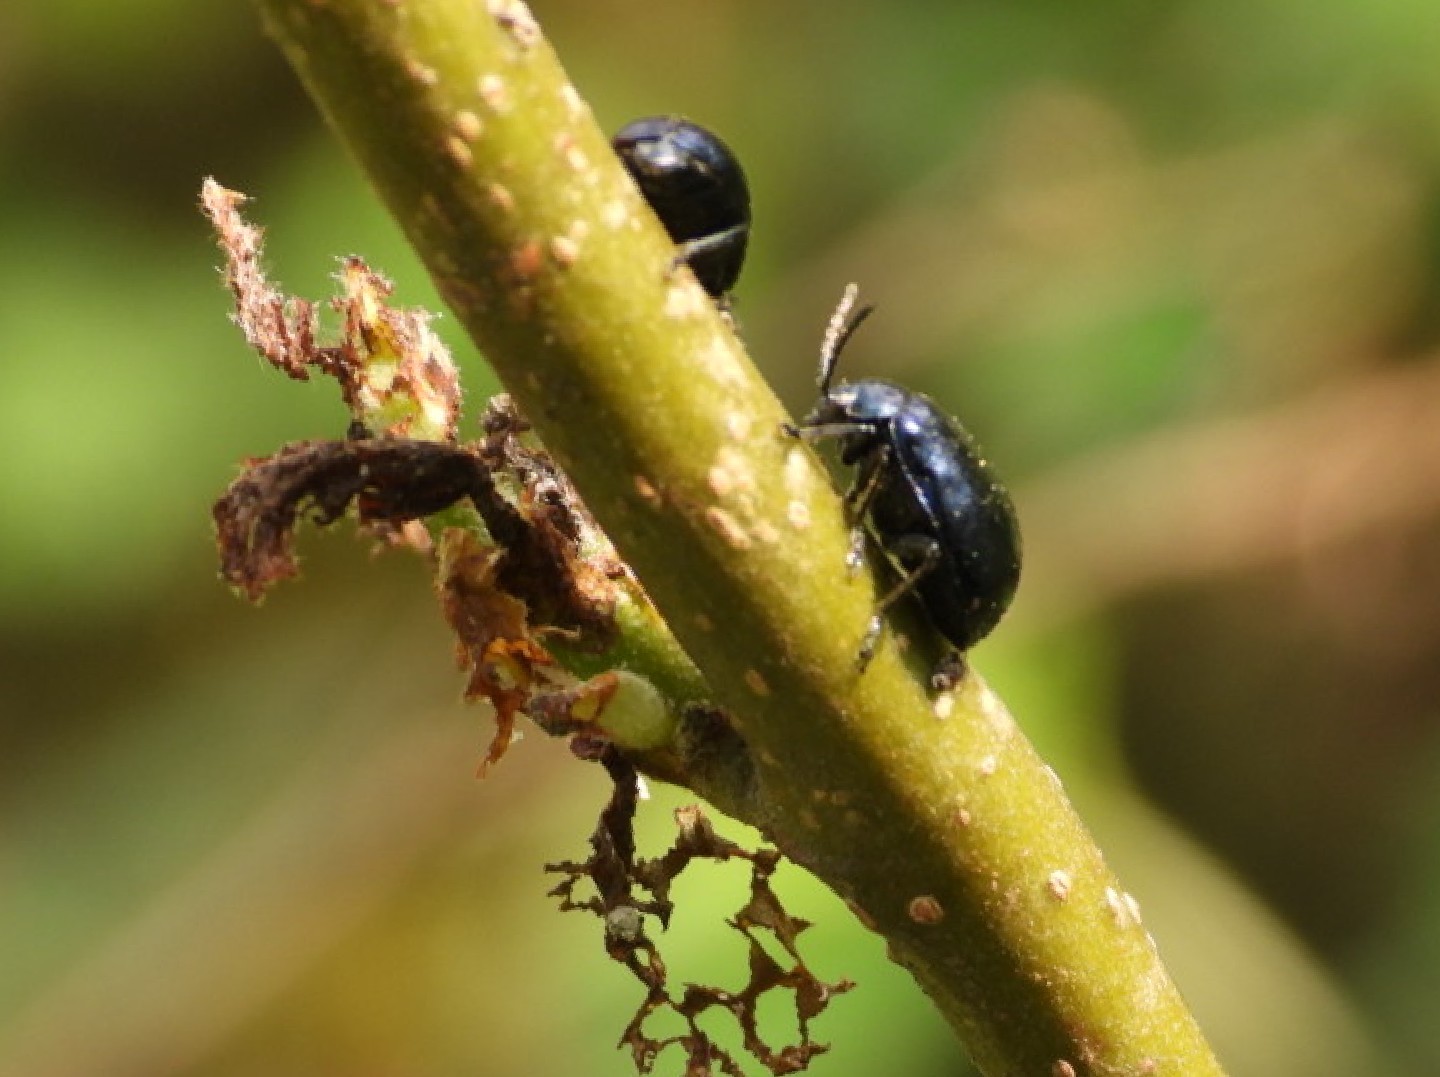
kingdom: Animalia
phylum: Arthropoda
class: Insecta
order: Coleoptera
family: Chrysomelidae
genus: Agelastica
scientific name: Agelastica alni
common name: Alder leaf beetle
